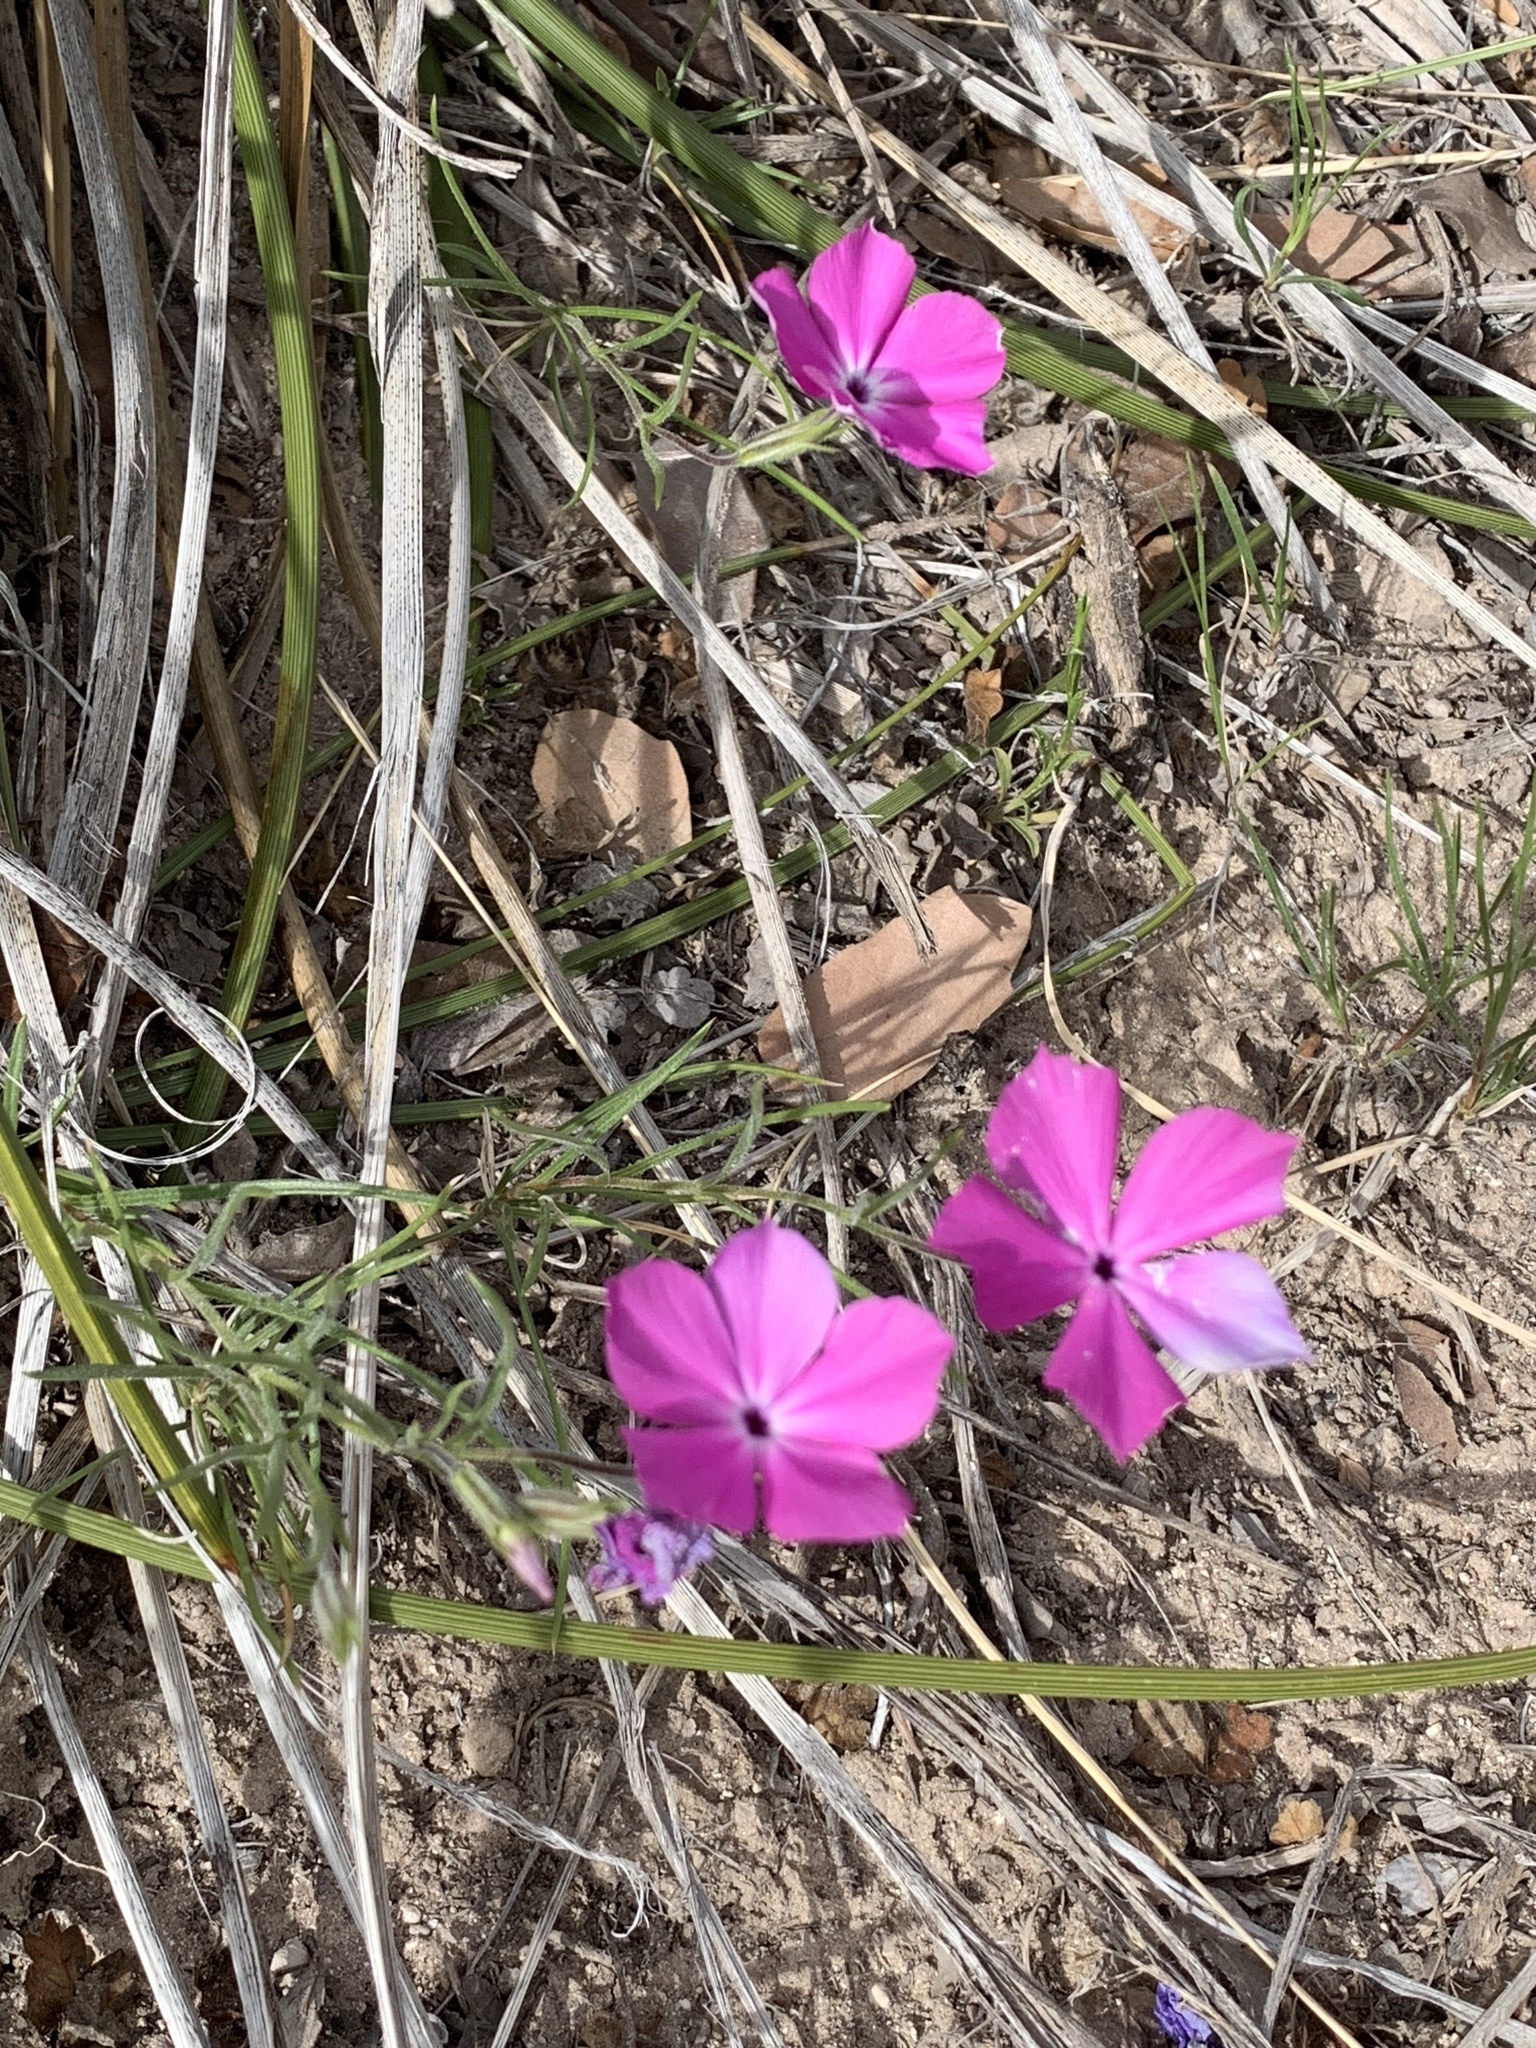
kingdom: Plantae
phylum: Tracheophyta
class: Magnoliopsida
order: Ericales
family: Polemoniaceae
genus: Phlox
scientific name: Phlox nana
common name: Santa fe phlox
